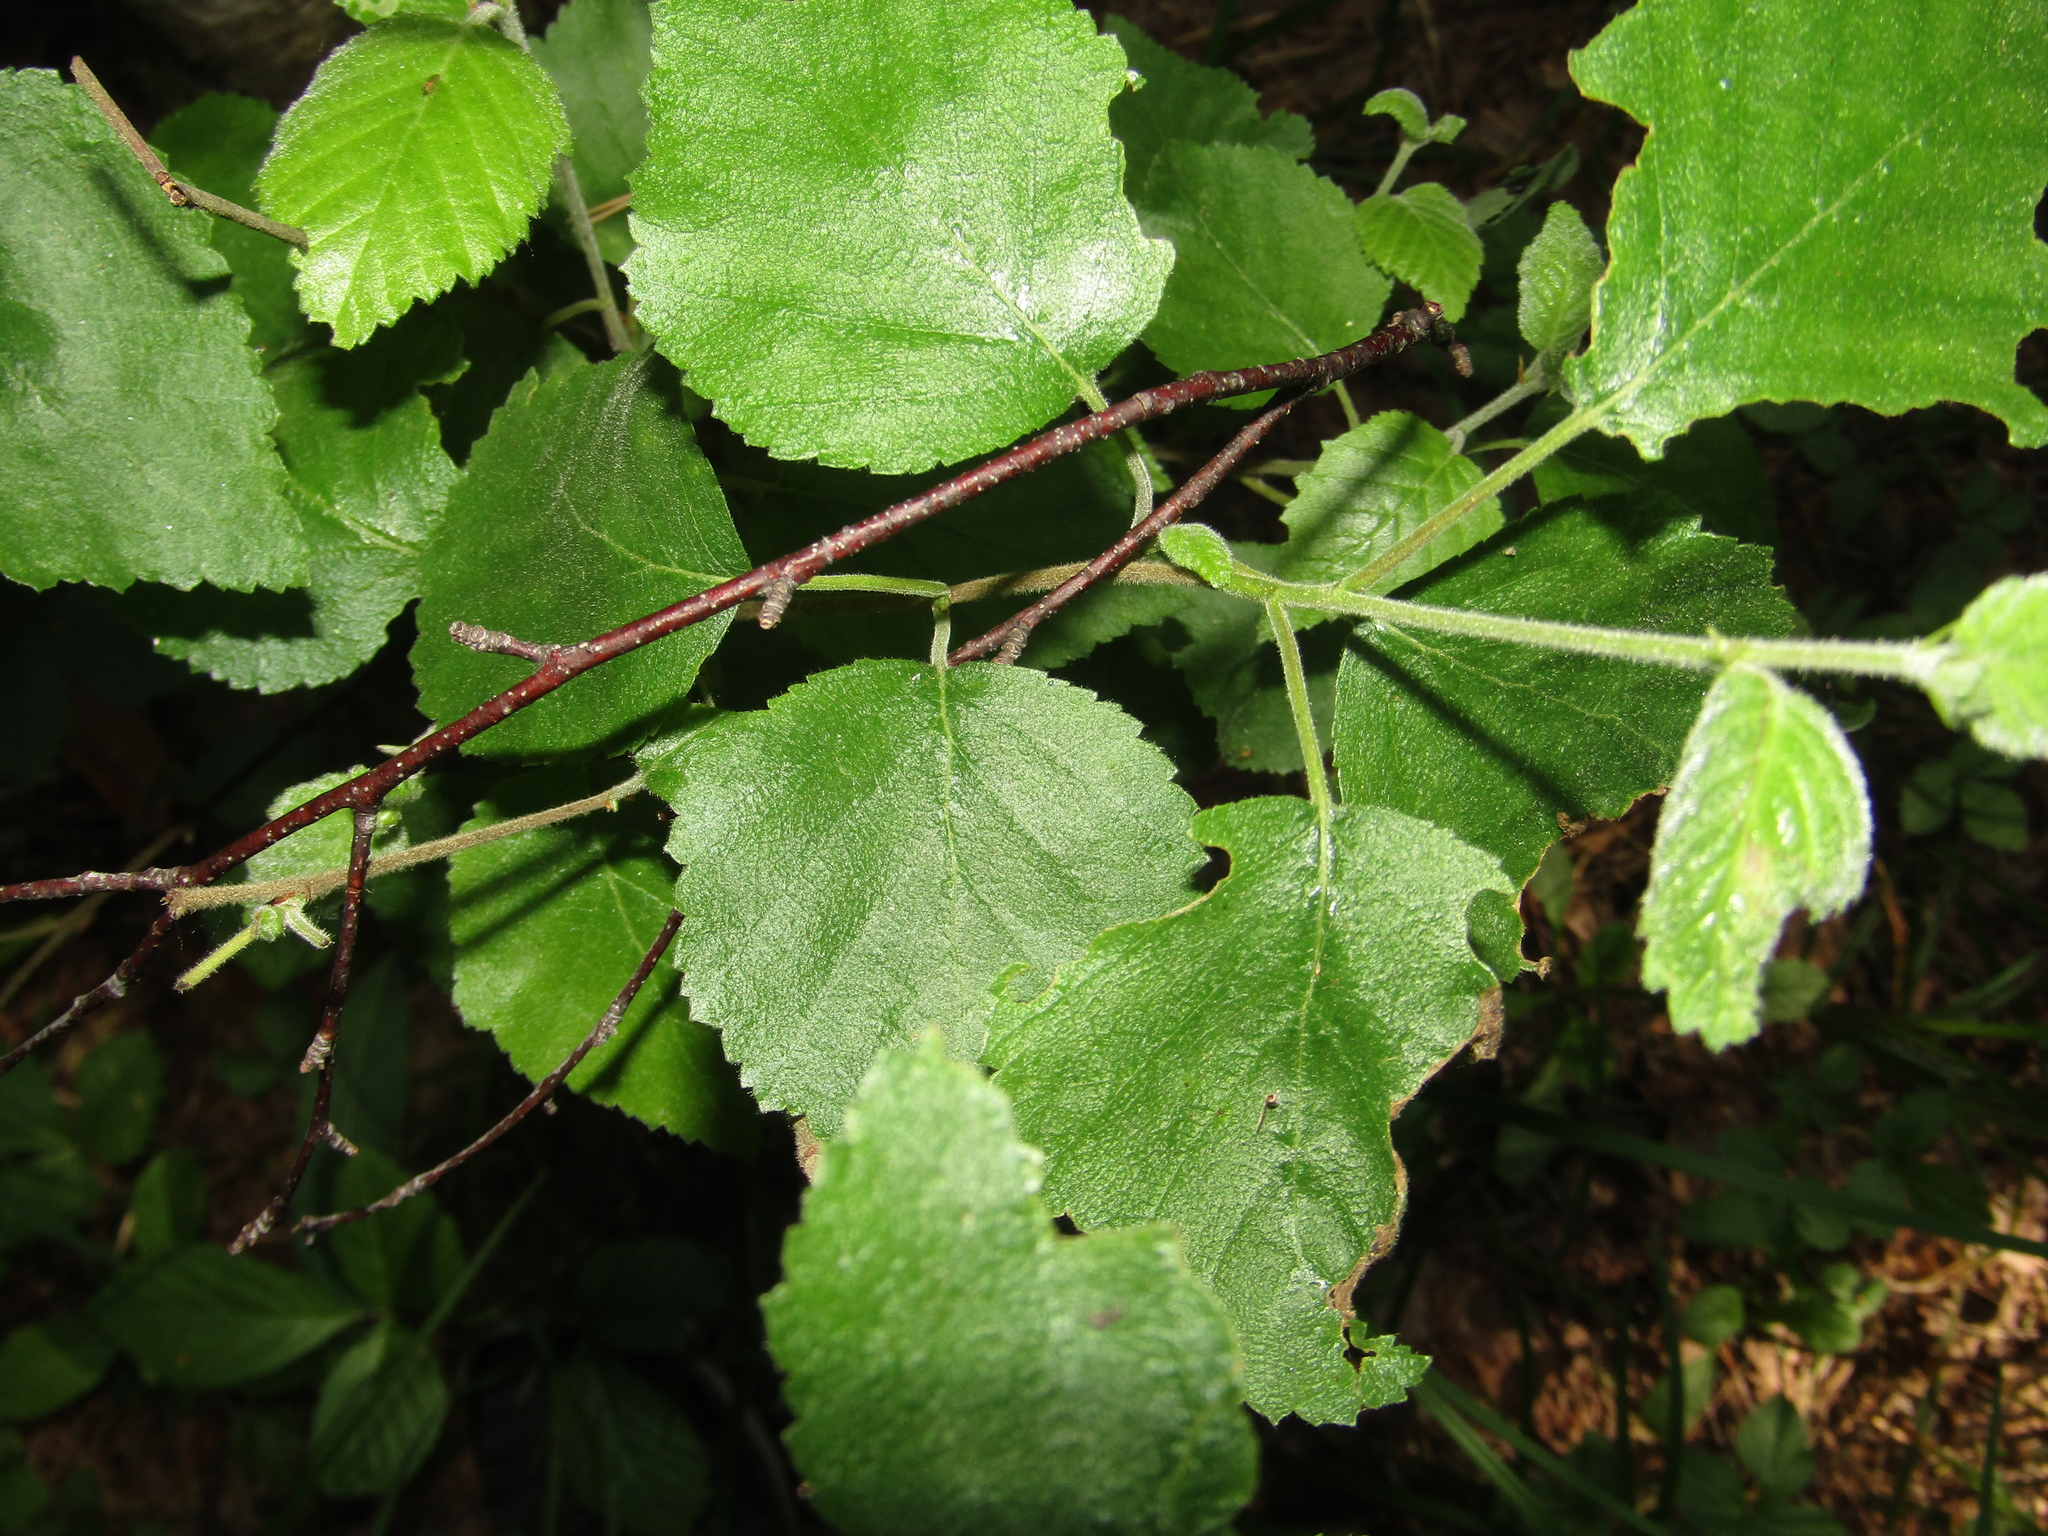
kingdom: Plantae
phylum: Tracheophyta
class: Magnoliopsida
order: Fagales
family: Betulaceae
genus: Betula
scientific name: Betula pubescens
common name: Downy birch
